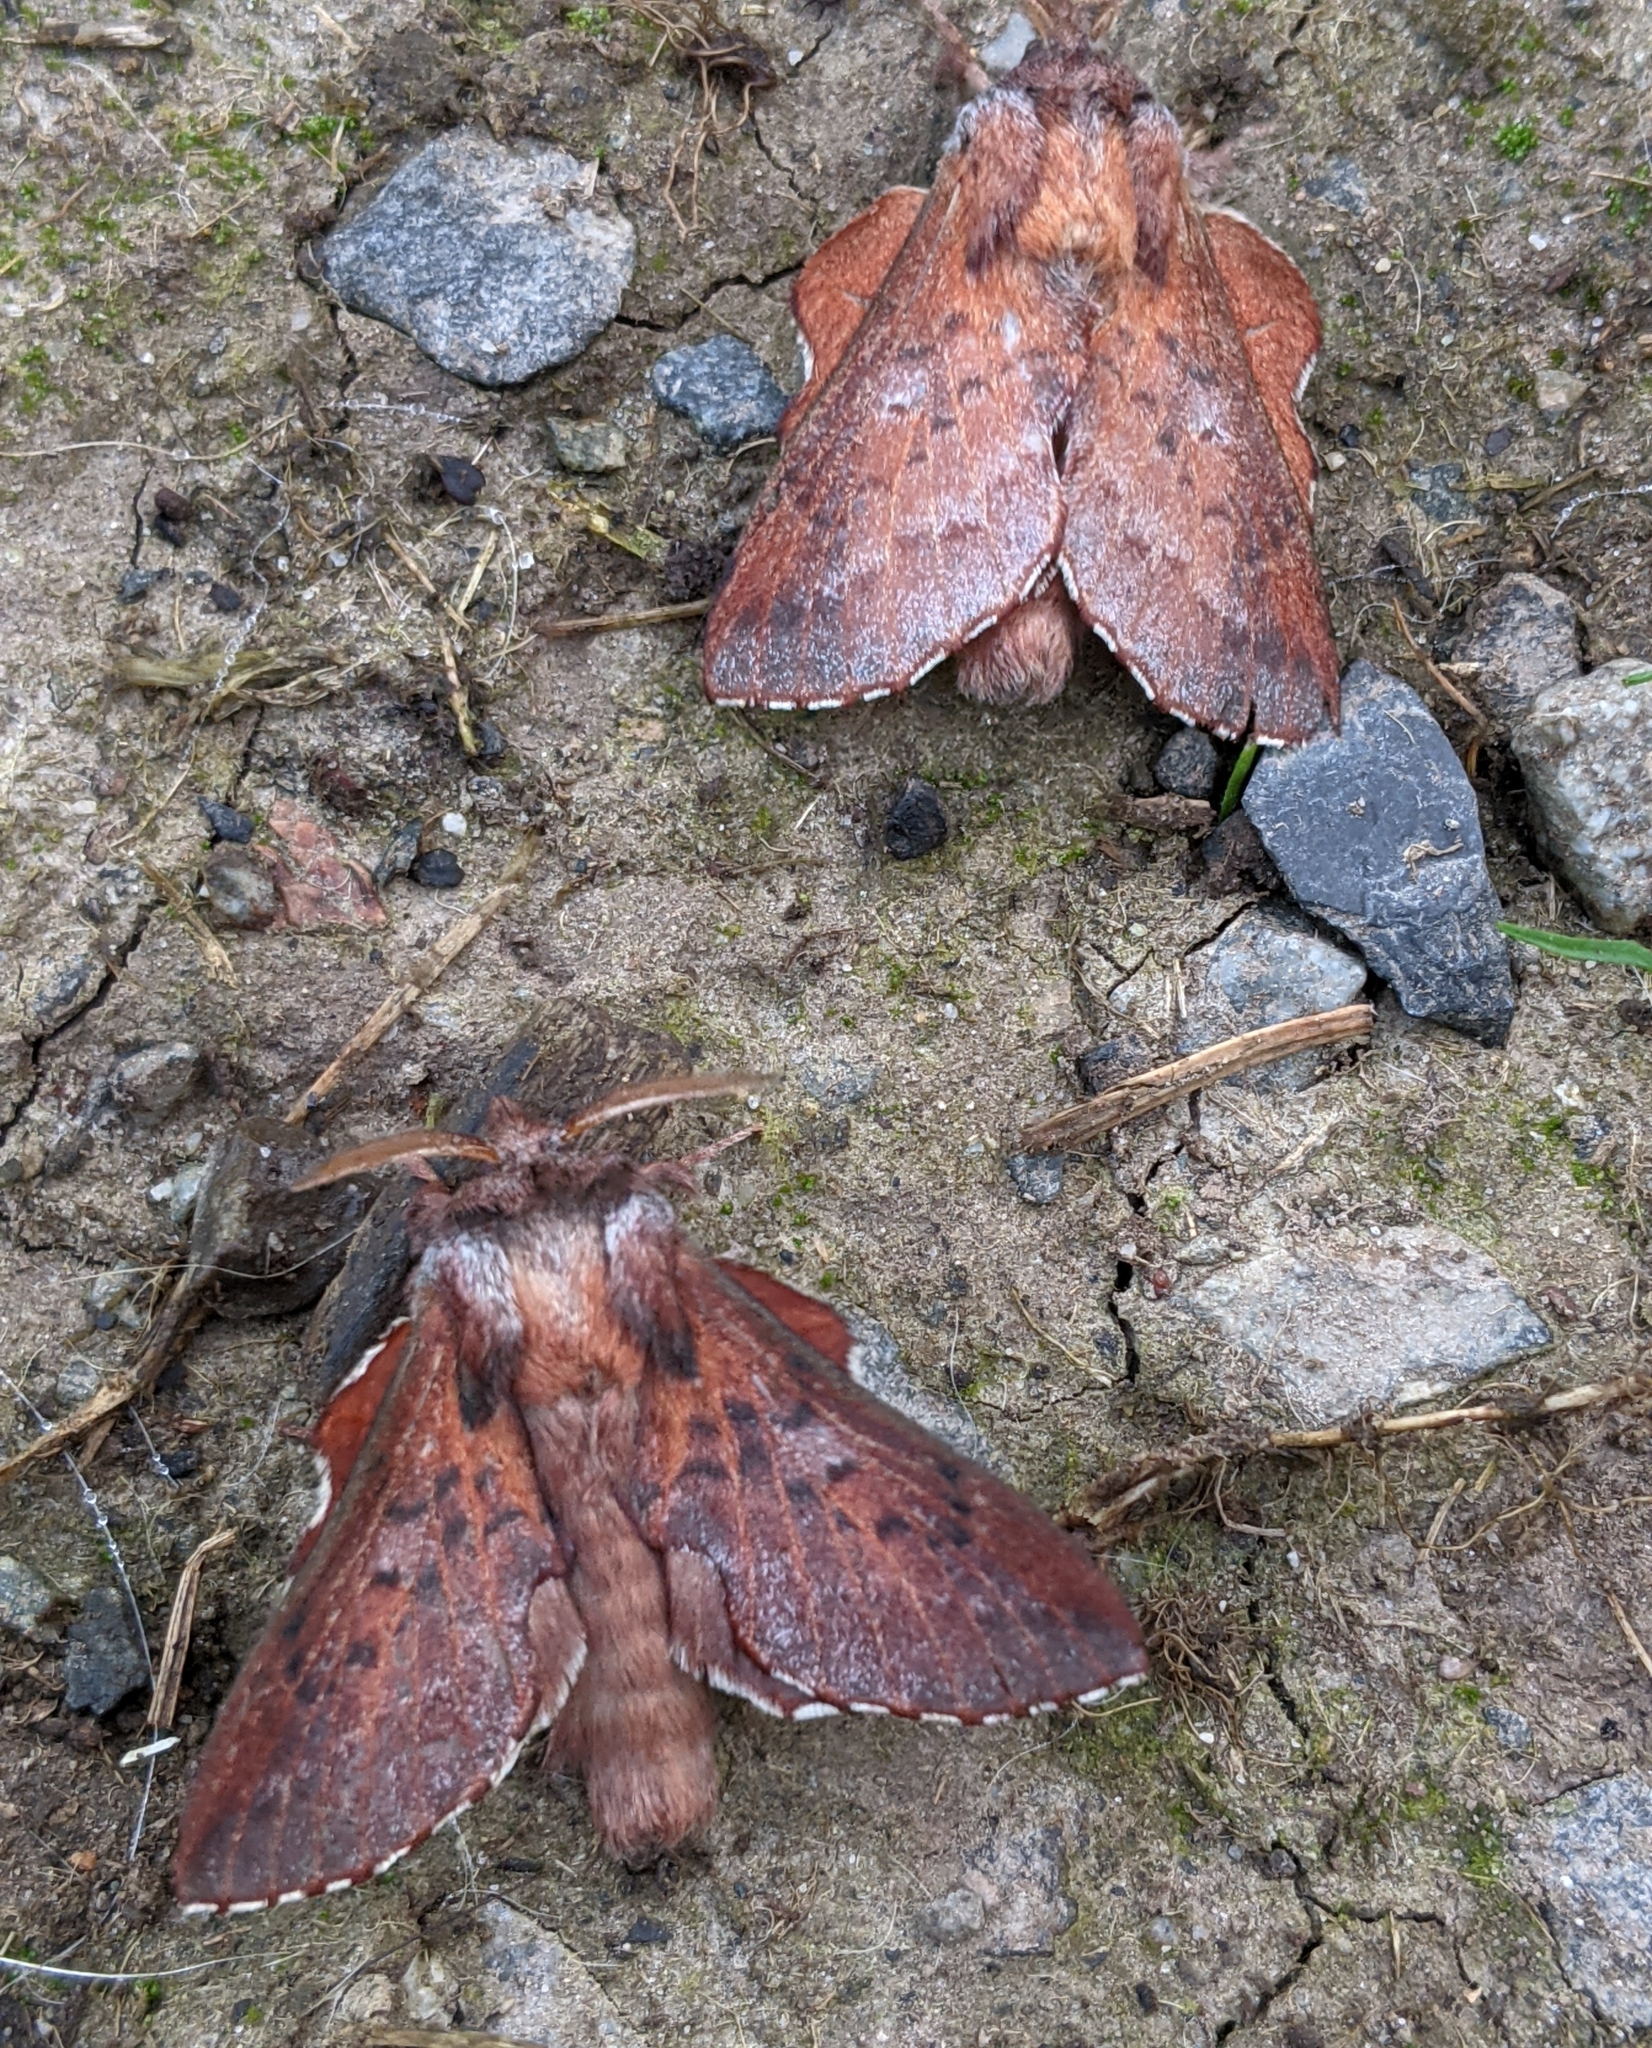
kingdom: Animalia
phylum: Arthropoda
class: Insecta
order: Lepidoptera
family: Lasiocampidae
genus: Phyllodesma
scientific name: Phyllodesma americana
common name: American lappet moth
